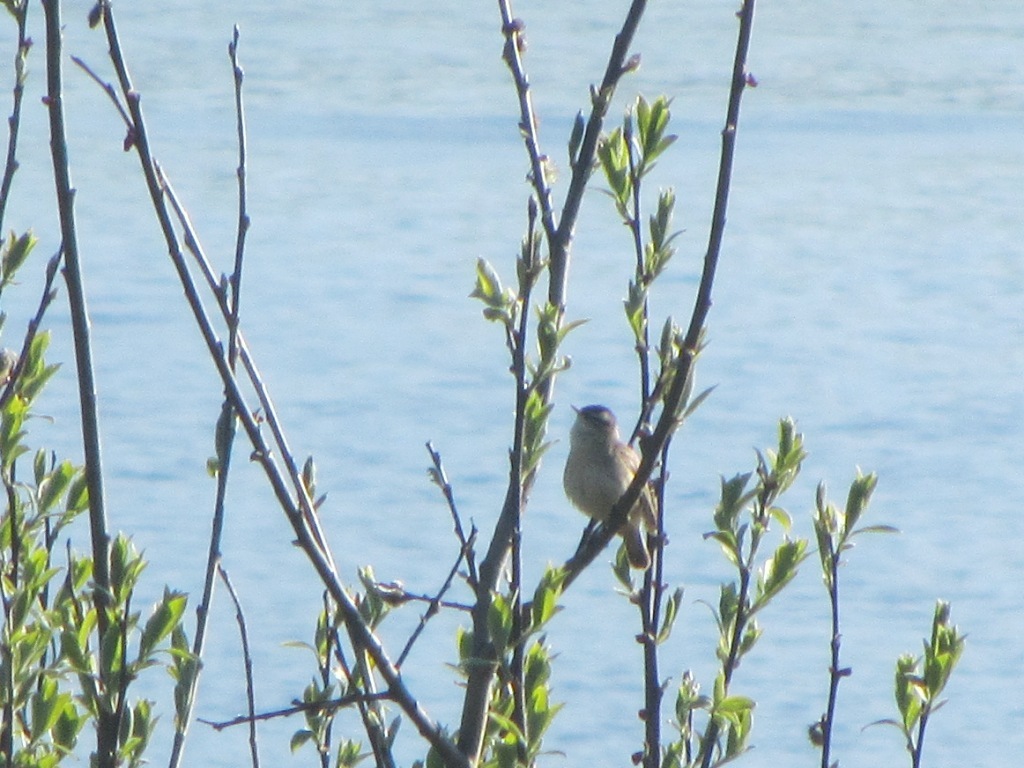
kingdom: Animalia
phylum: Chordata
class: Aves
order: Passeriformes
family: Acrocephalidae
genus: Acrocephalus
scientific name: Acrocephalus schoenobaenus
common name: Sedge warbler
